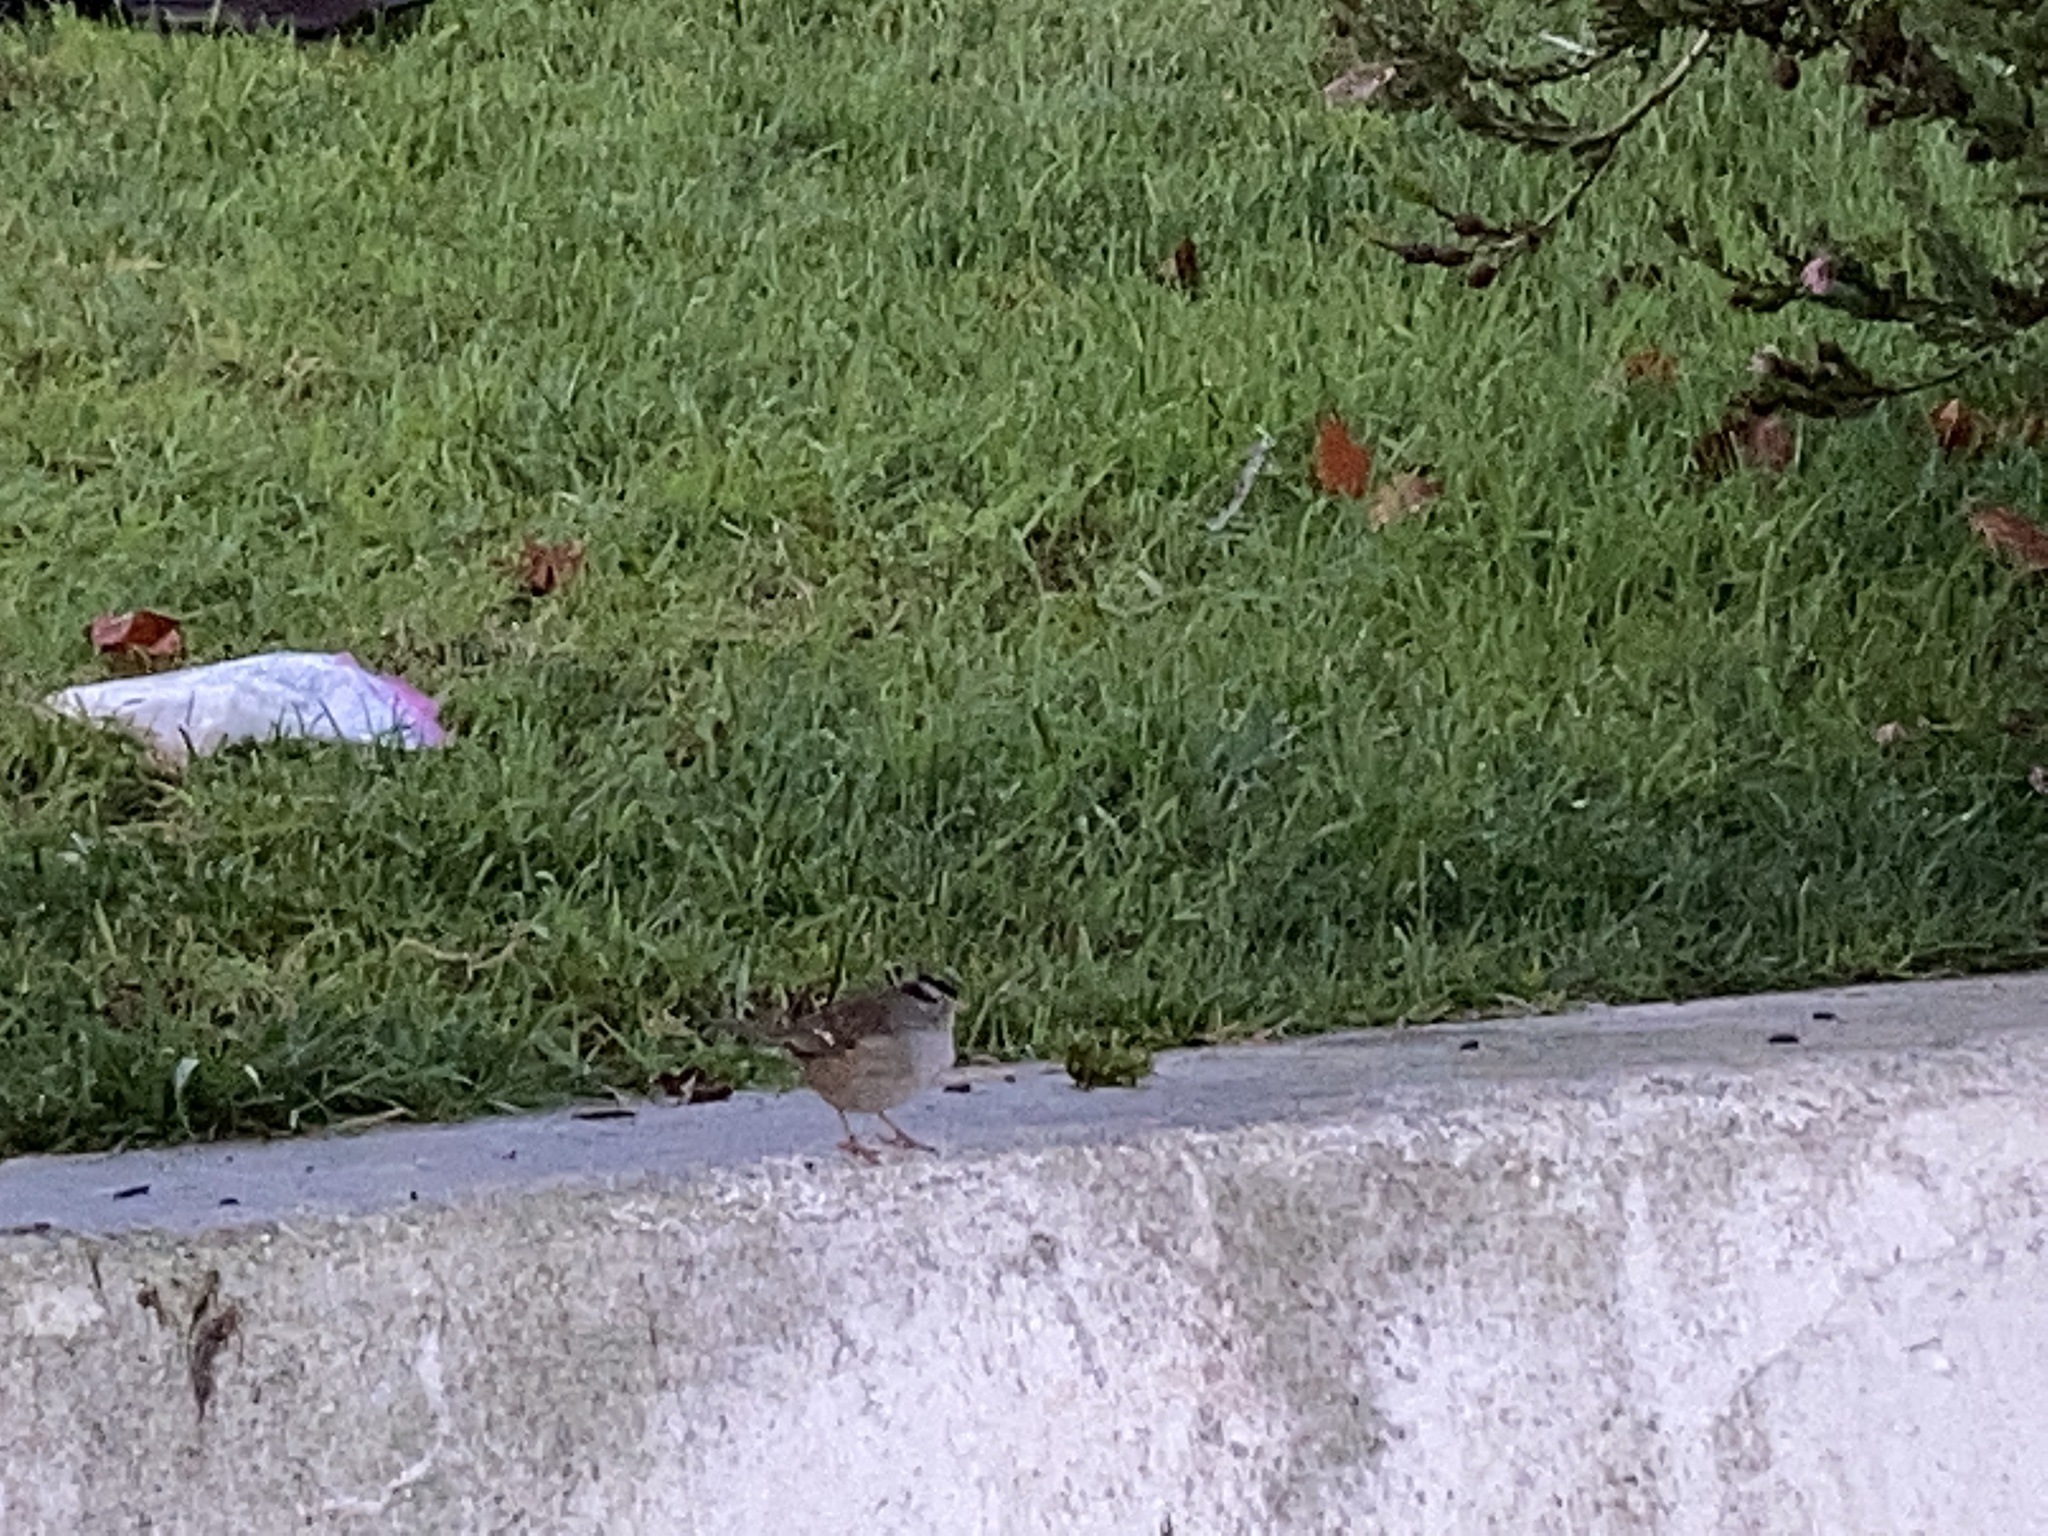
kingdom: Animalia
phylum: Chordata
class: Aves
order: Passeriformes
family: Passerellidae
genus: Zonotrichia
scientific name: Zonotrichia leucophrys
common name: White-crowned sparrow
